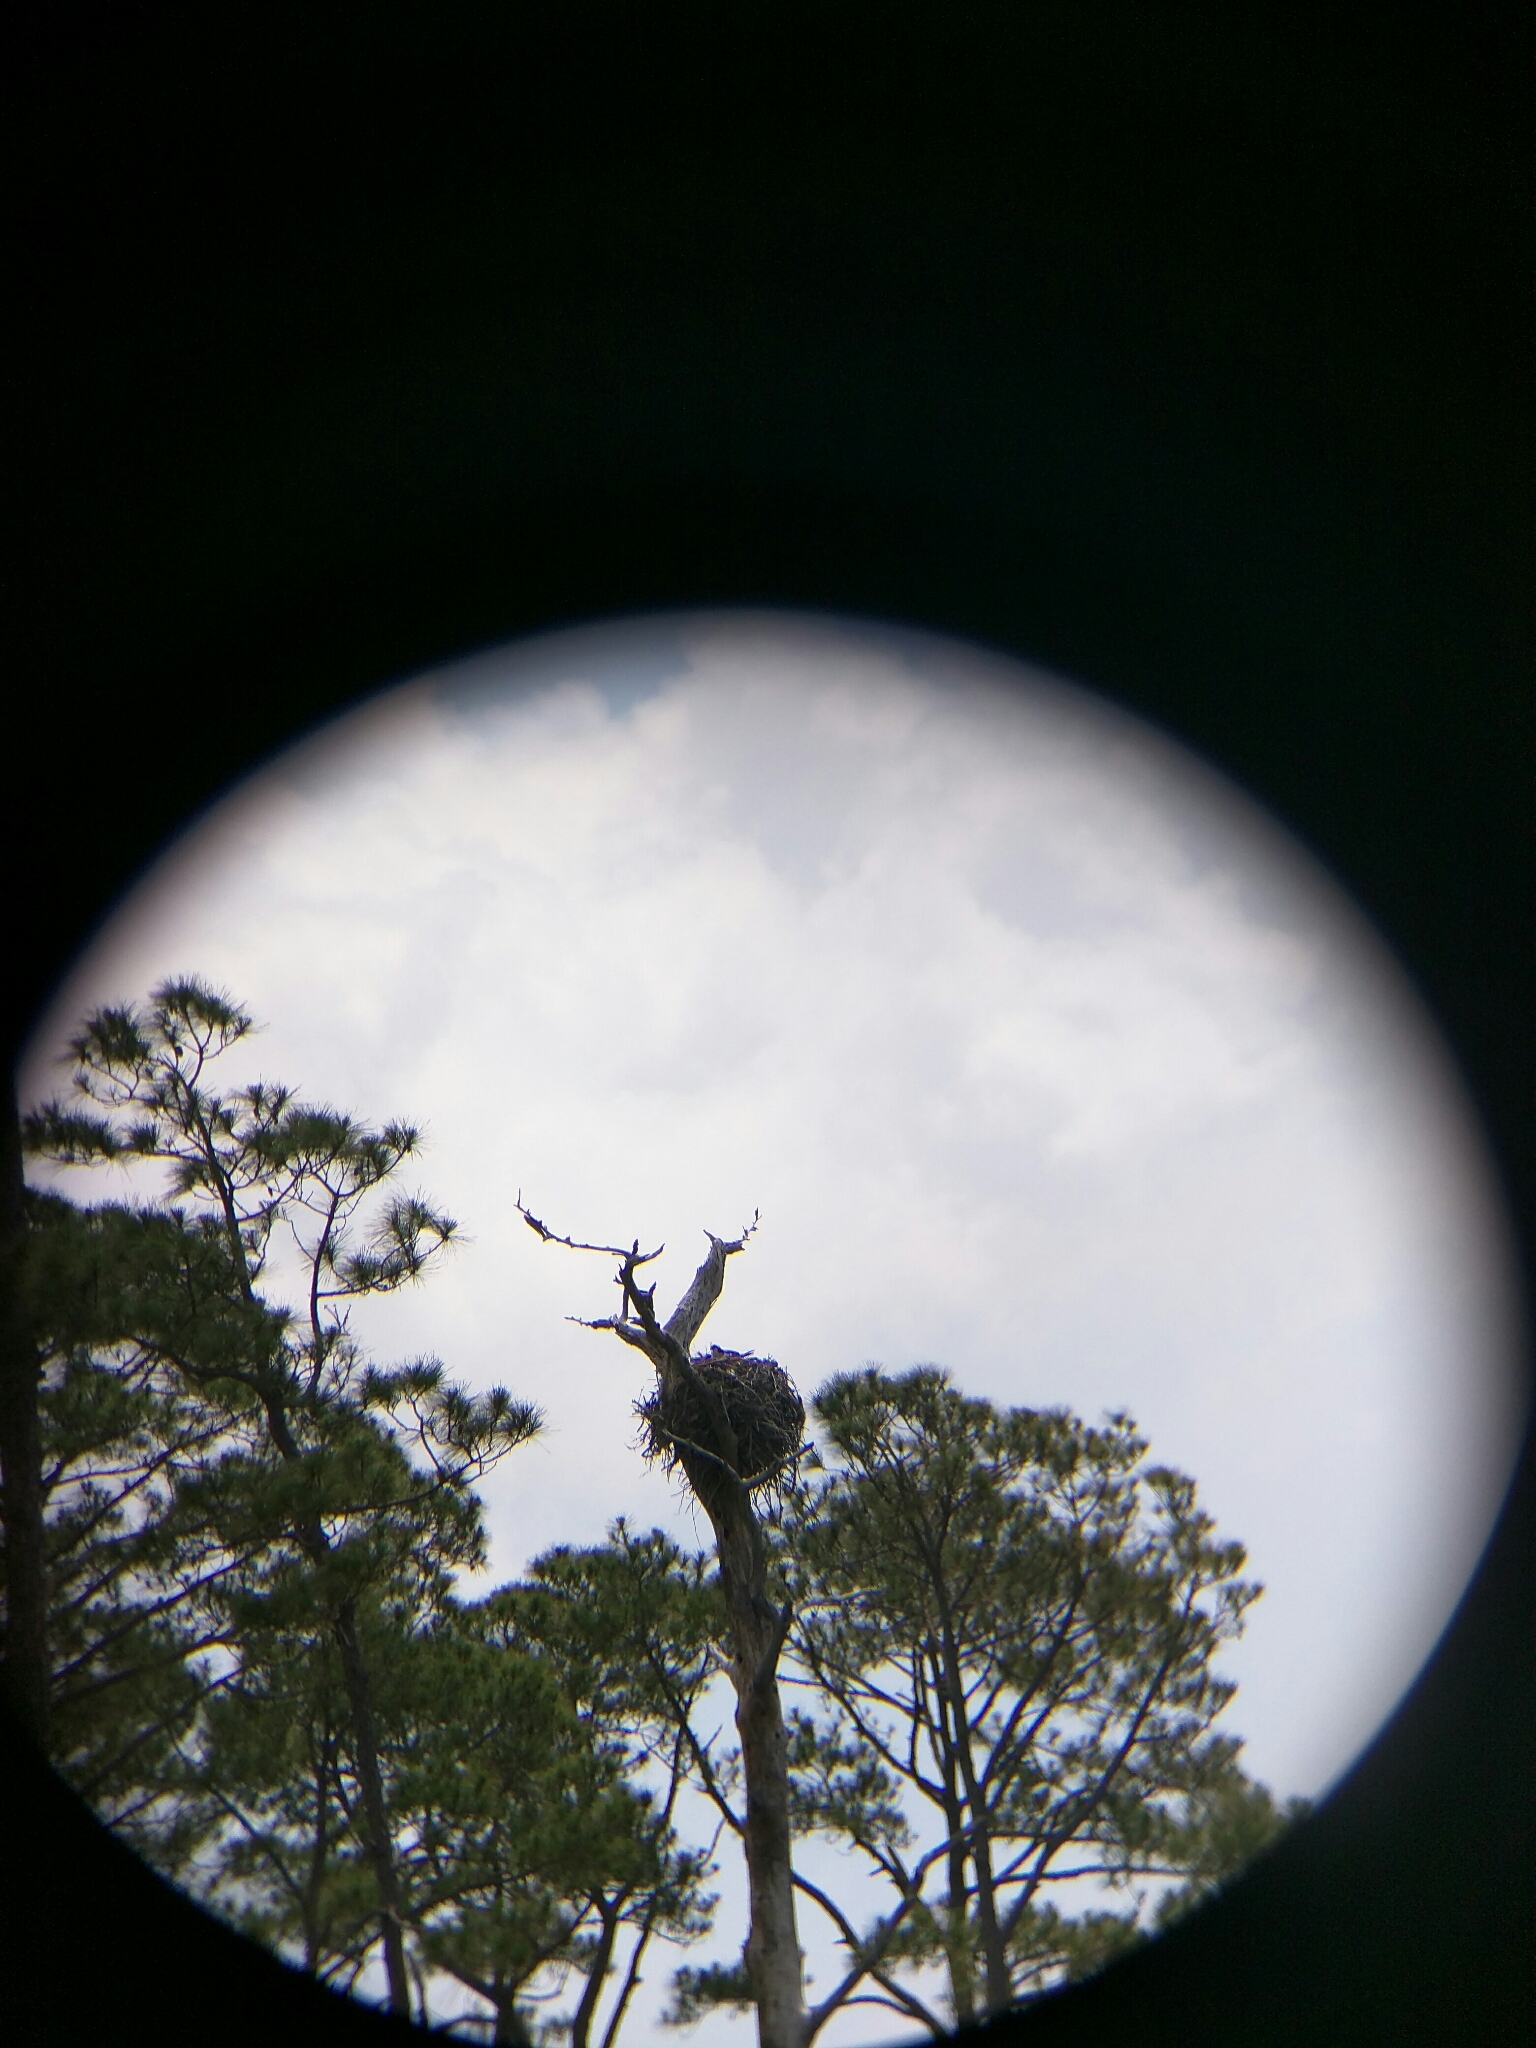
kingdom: Animalia
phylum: Chordata
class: Aves
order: Accipitriformes
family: Pandionidae
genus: Pandion
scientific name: Pandion haliaetus
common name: Osprey
